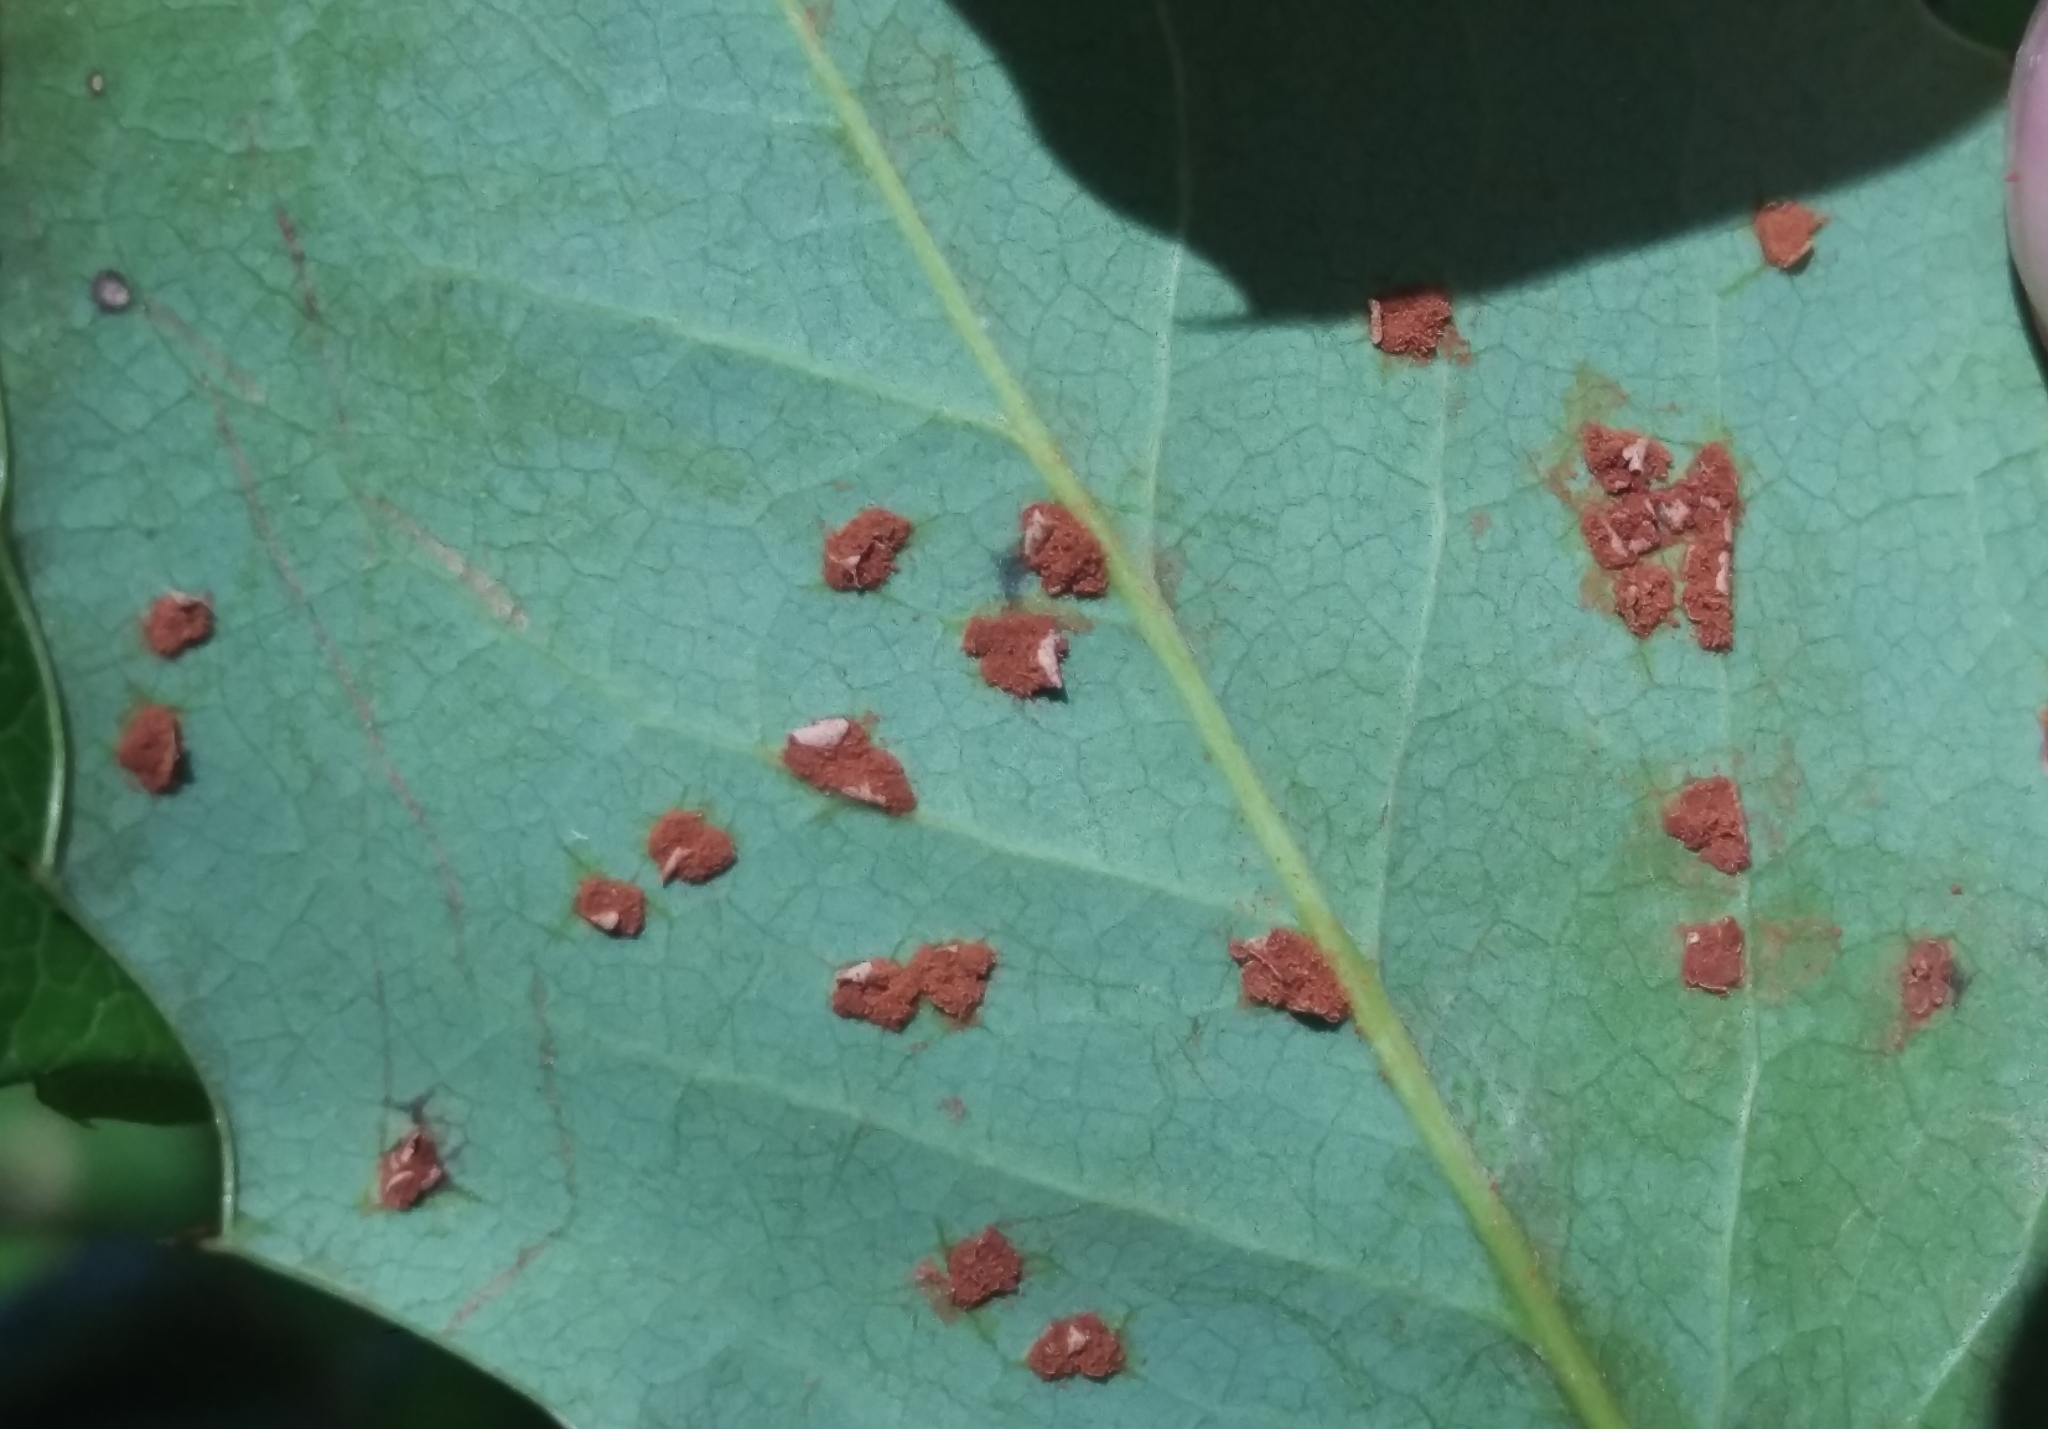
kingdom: Fungi
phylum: Basidiomycota
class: Pucciniomycetes
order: Pucciniales
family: Pucciniaceae
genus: Cumminsiella
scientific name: Cumminsiella mirabilissima
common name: Mahonia rust
